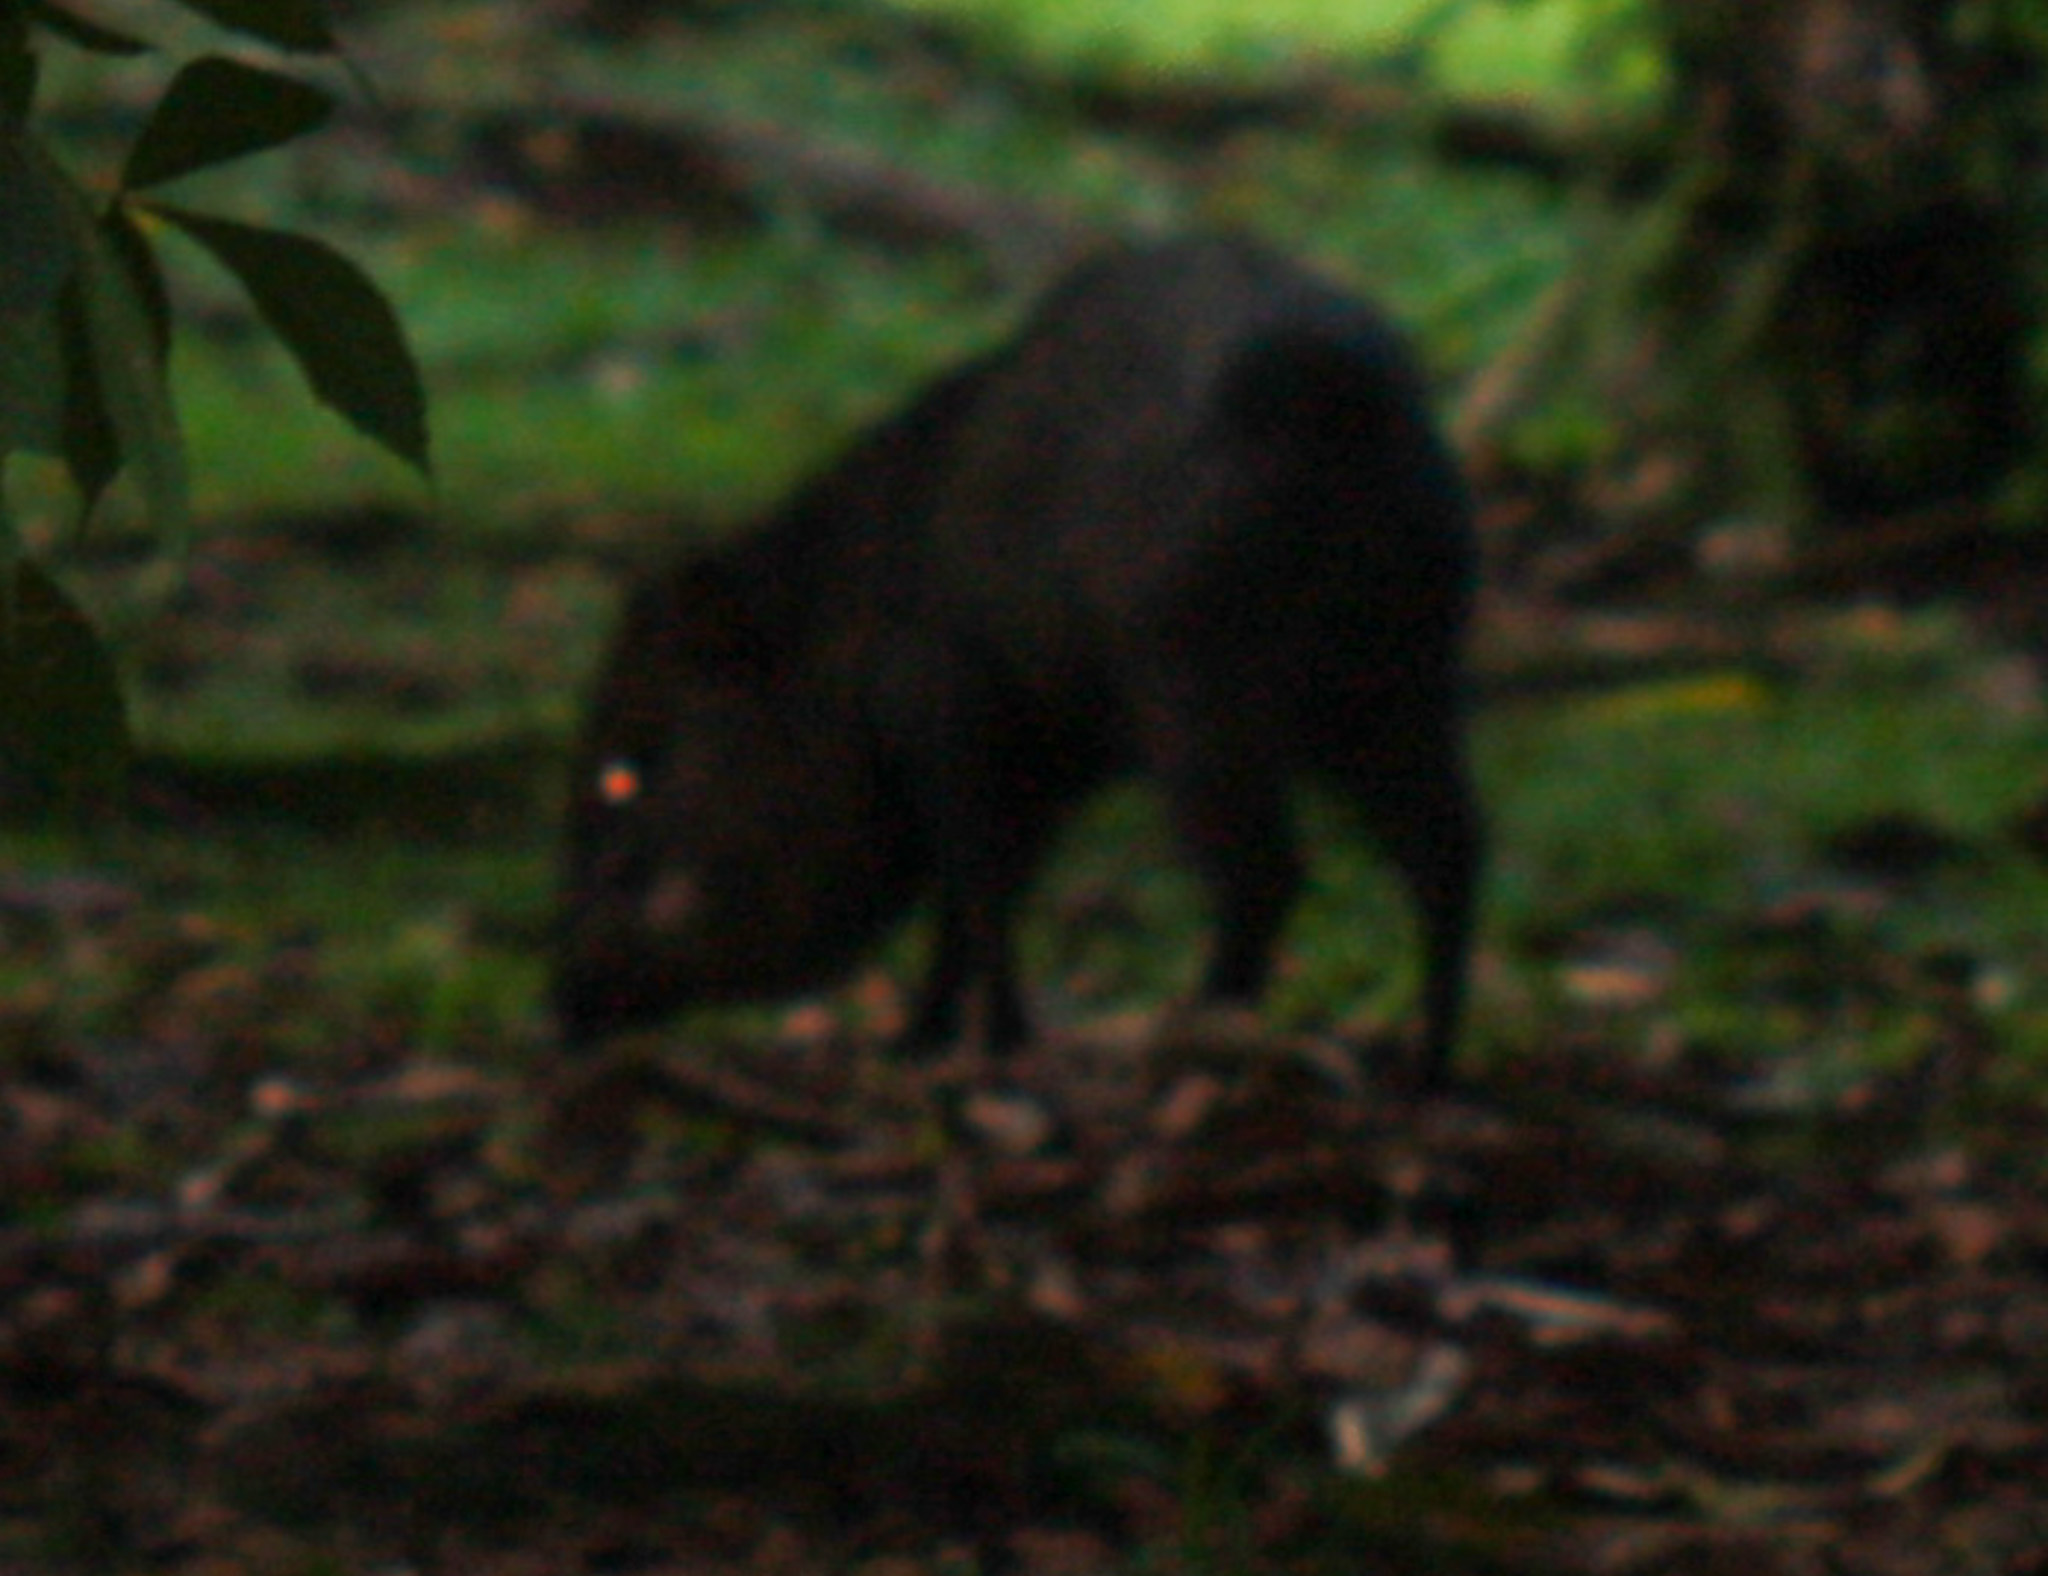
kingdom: Animalia
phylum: Chordata
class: Mammalia
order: Artiodactyla
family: Tayassuidae
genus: Pecari
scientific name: Pecari tajacu
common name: Collared peccary
